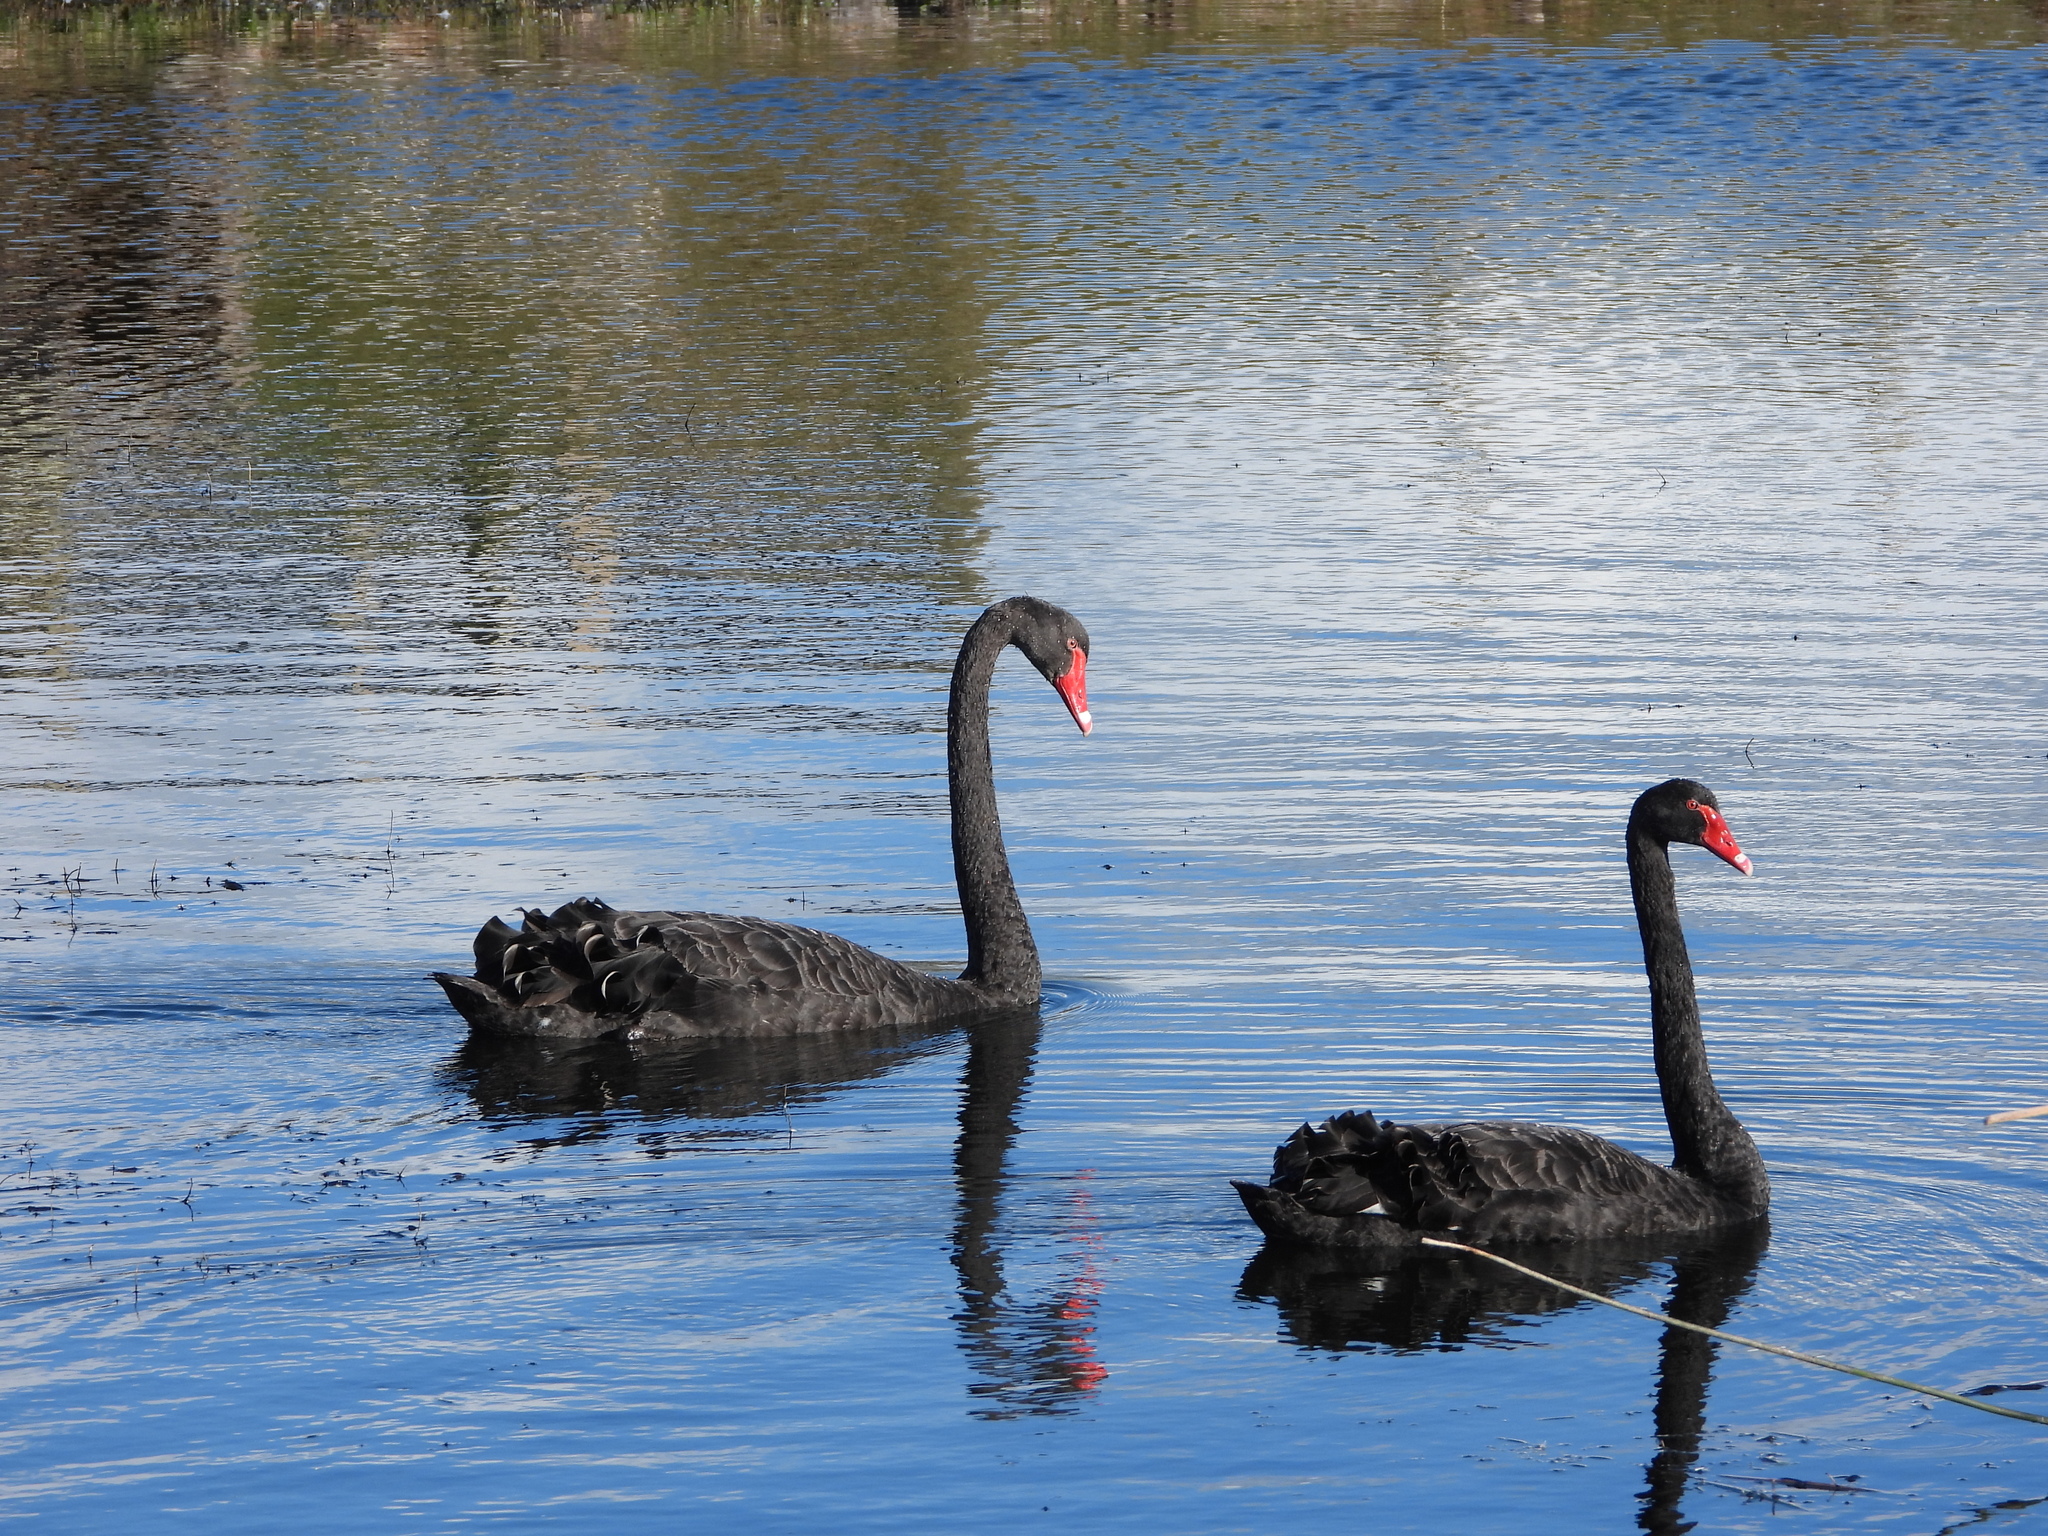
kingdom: Animalia
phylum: Chordata
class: Aves
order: Anseriformes
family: Anatidae
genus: Cygnus
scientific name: Cygnus atratus
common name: Black swan
